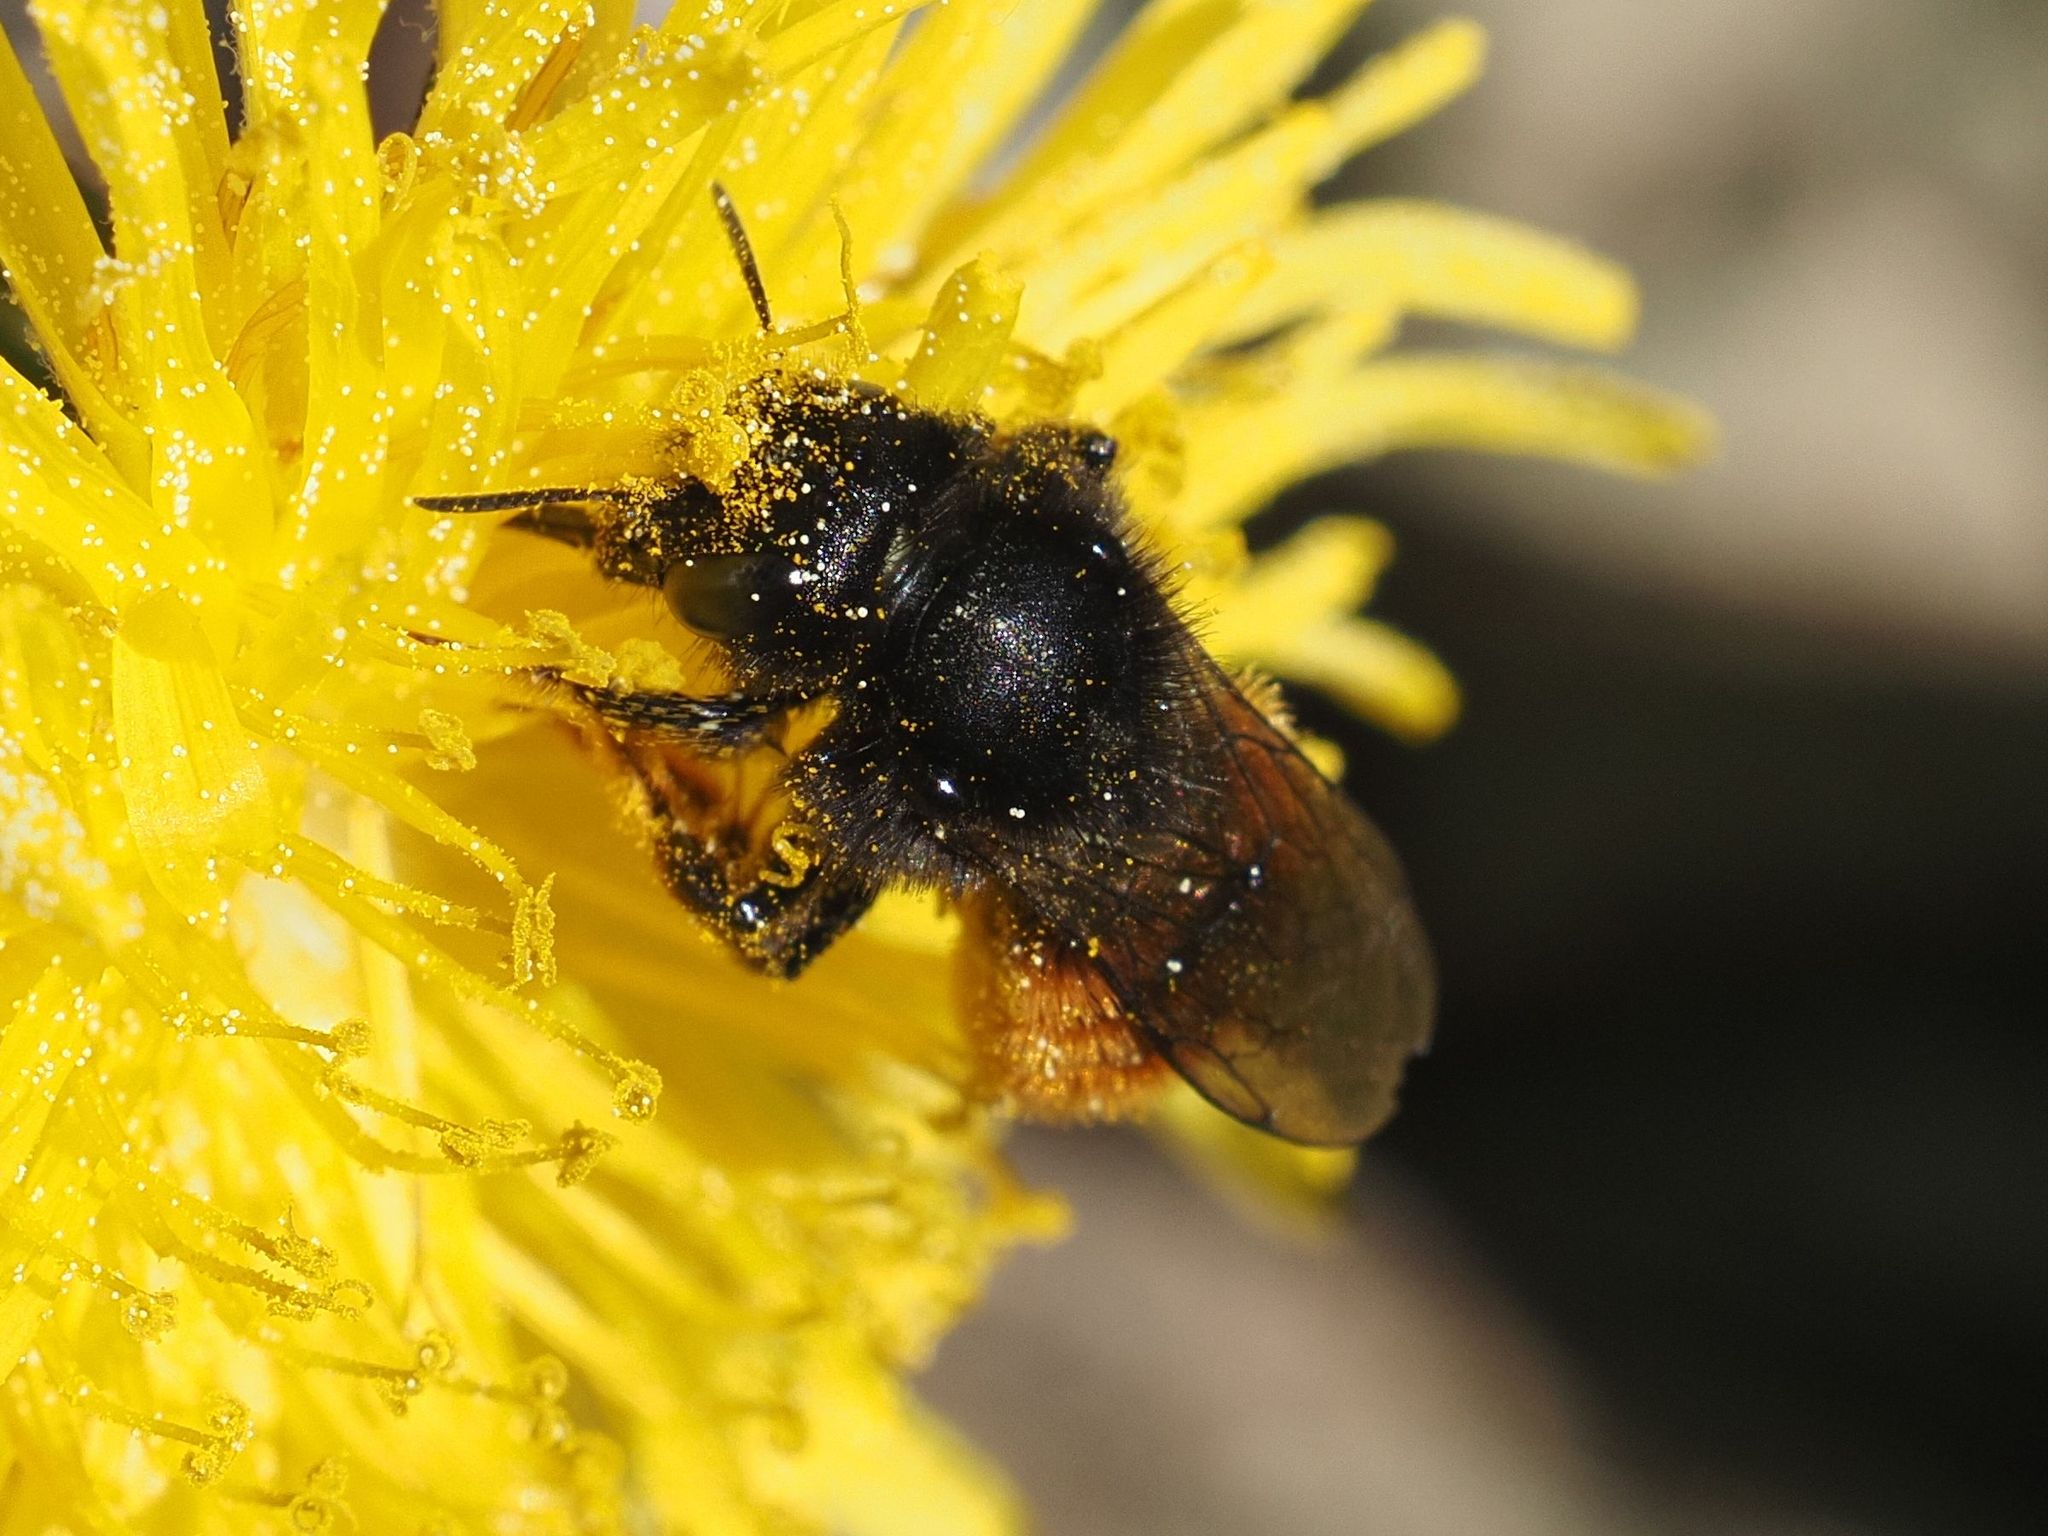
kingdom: Animalia
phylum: Arthropoda
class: Insecta
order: Hymenoptera
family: Megachilidae
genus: Osmia
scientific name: Osmia bicolor
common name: Red-tailed mason bee
